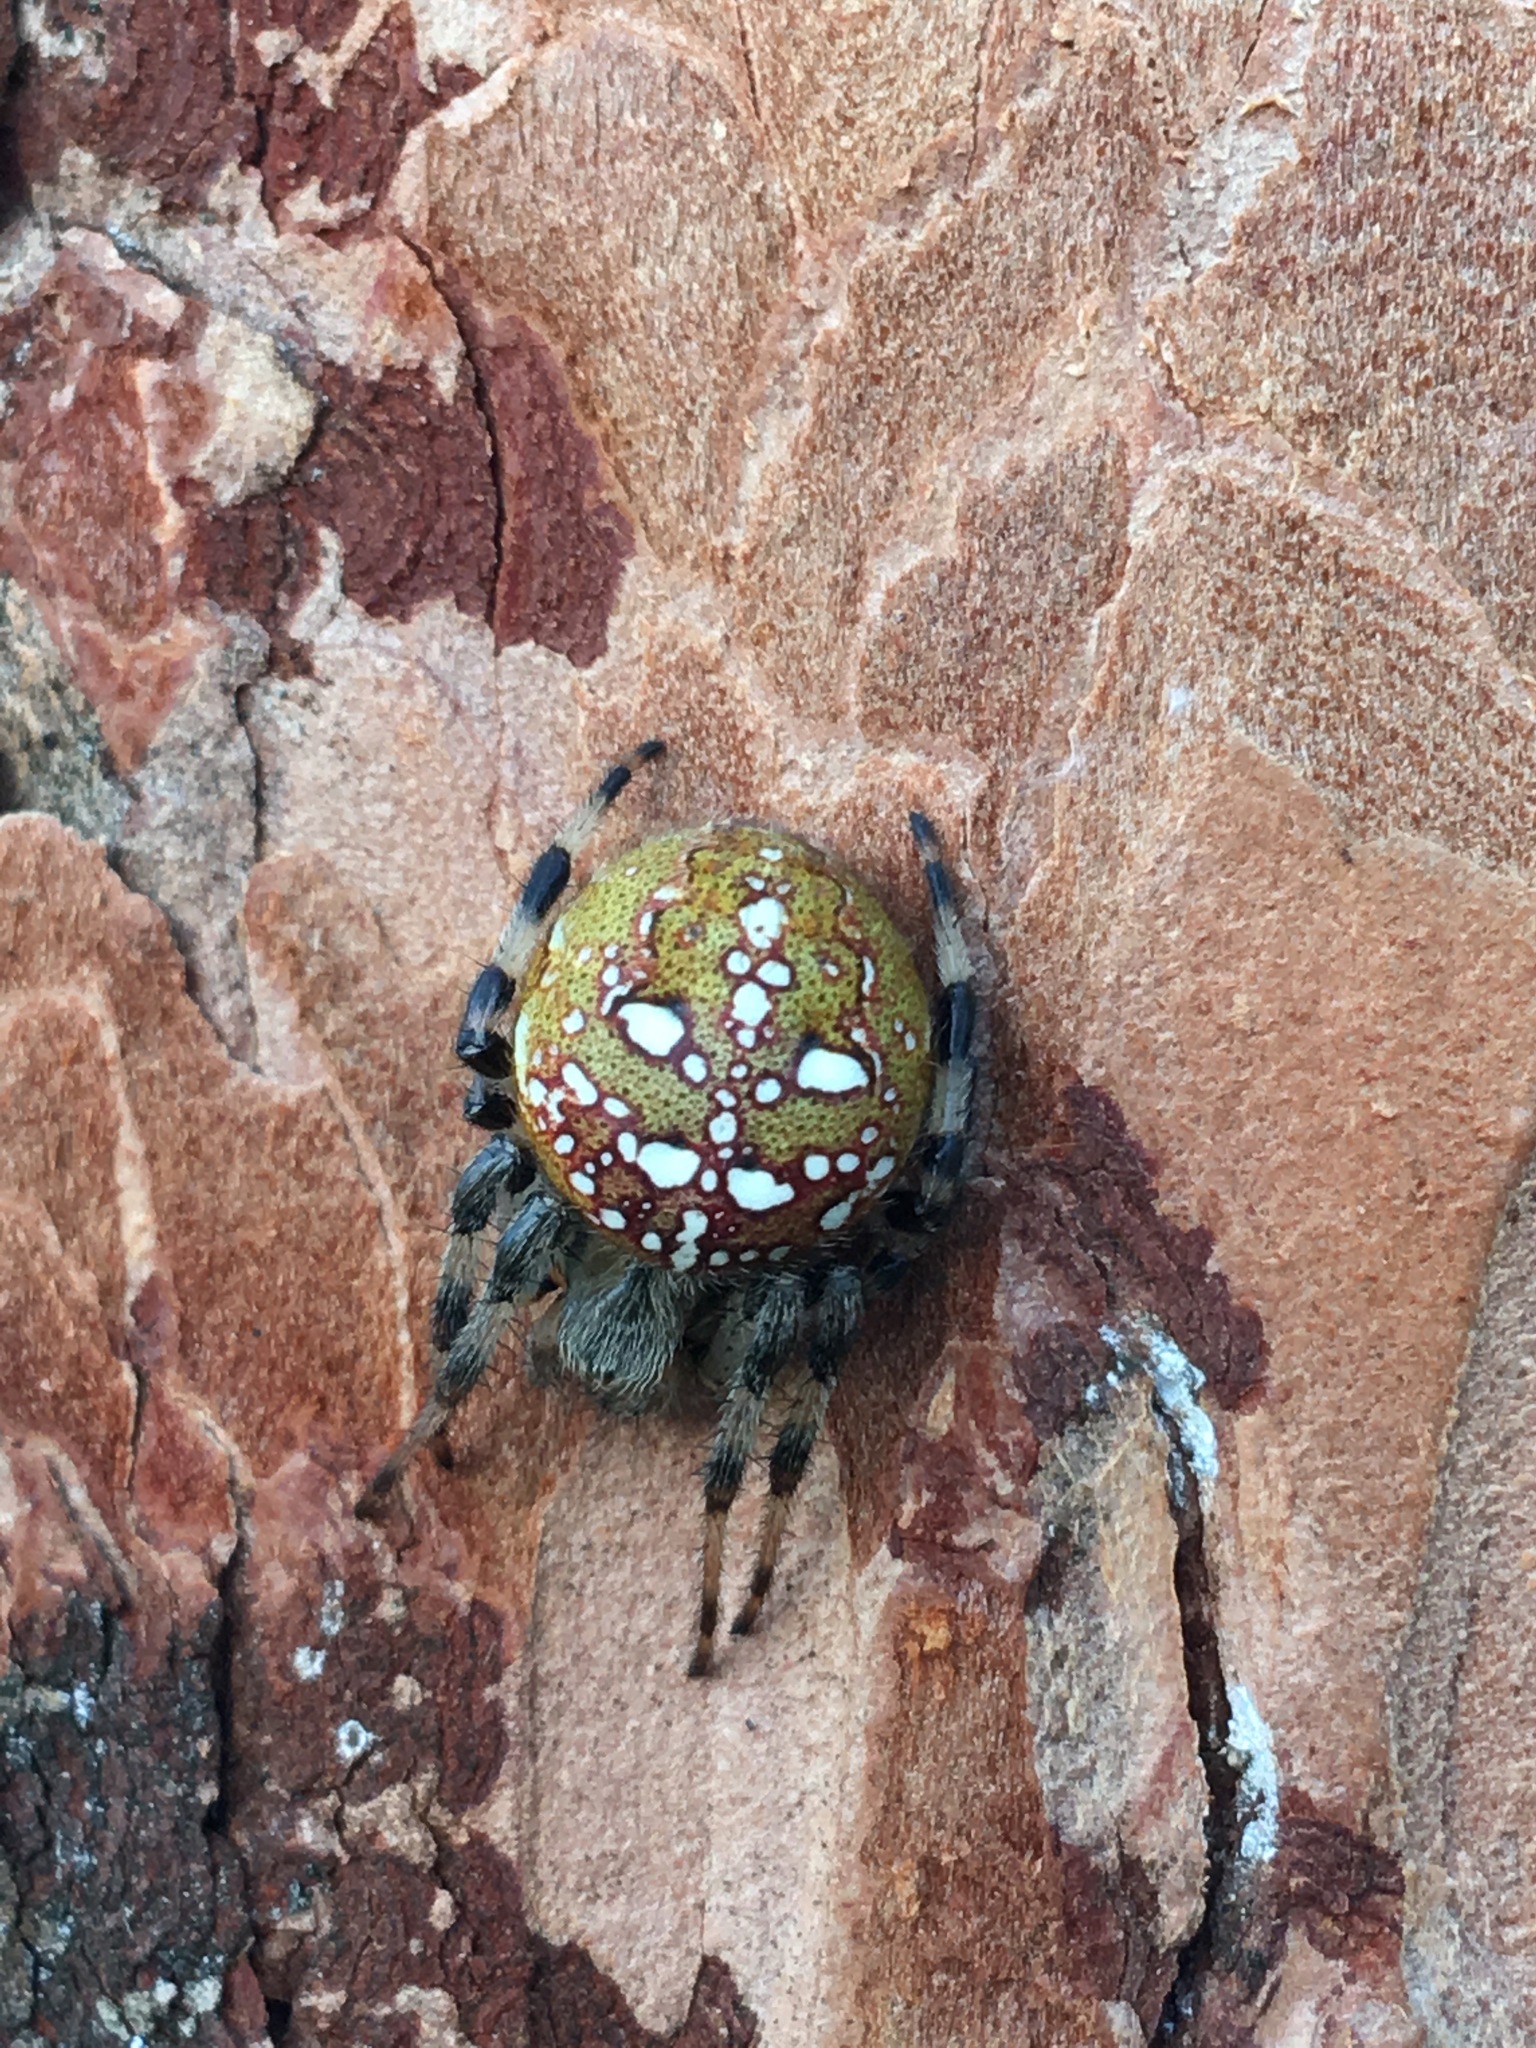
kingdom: Animalia
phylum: Arthropoda
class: Arachnida
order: Araneae
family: Araneidae
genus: Araneus
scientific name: Araneus quadratus
